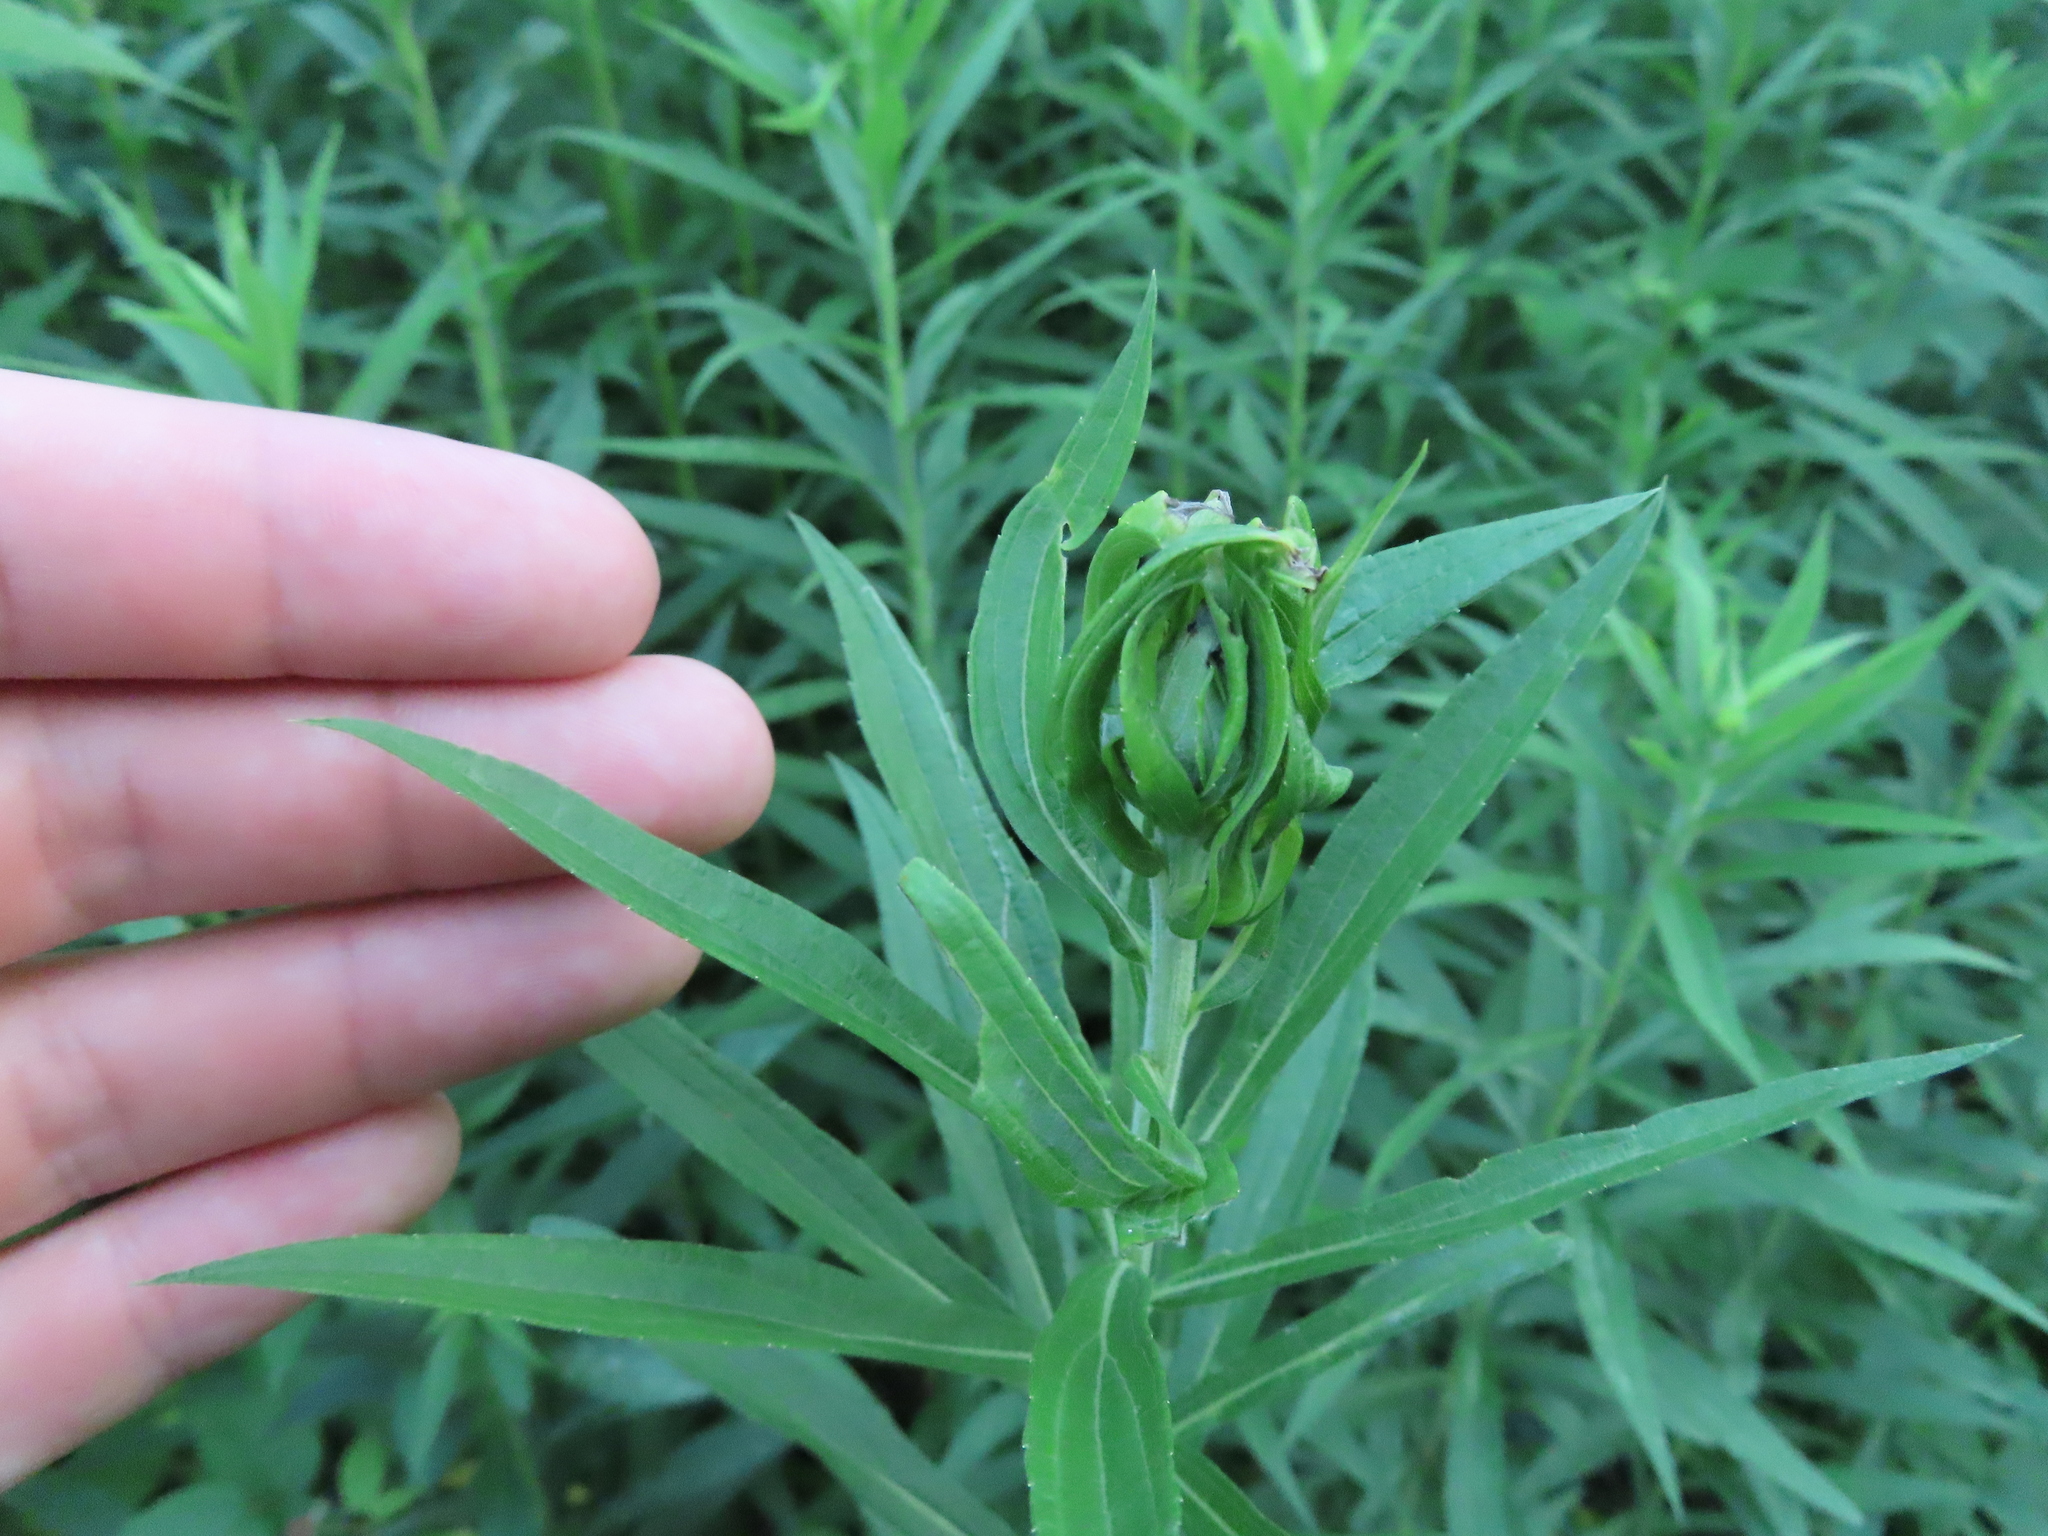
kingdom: Animalia
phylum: Arthropoda
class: Insecta
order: Diptera
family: Cecidomyiidae
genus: Asphondylia
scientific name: Asphondylia solidaginis
